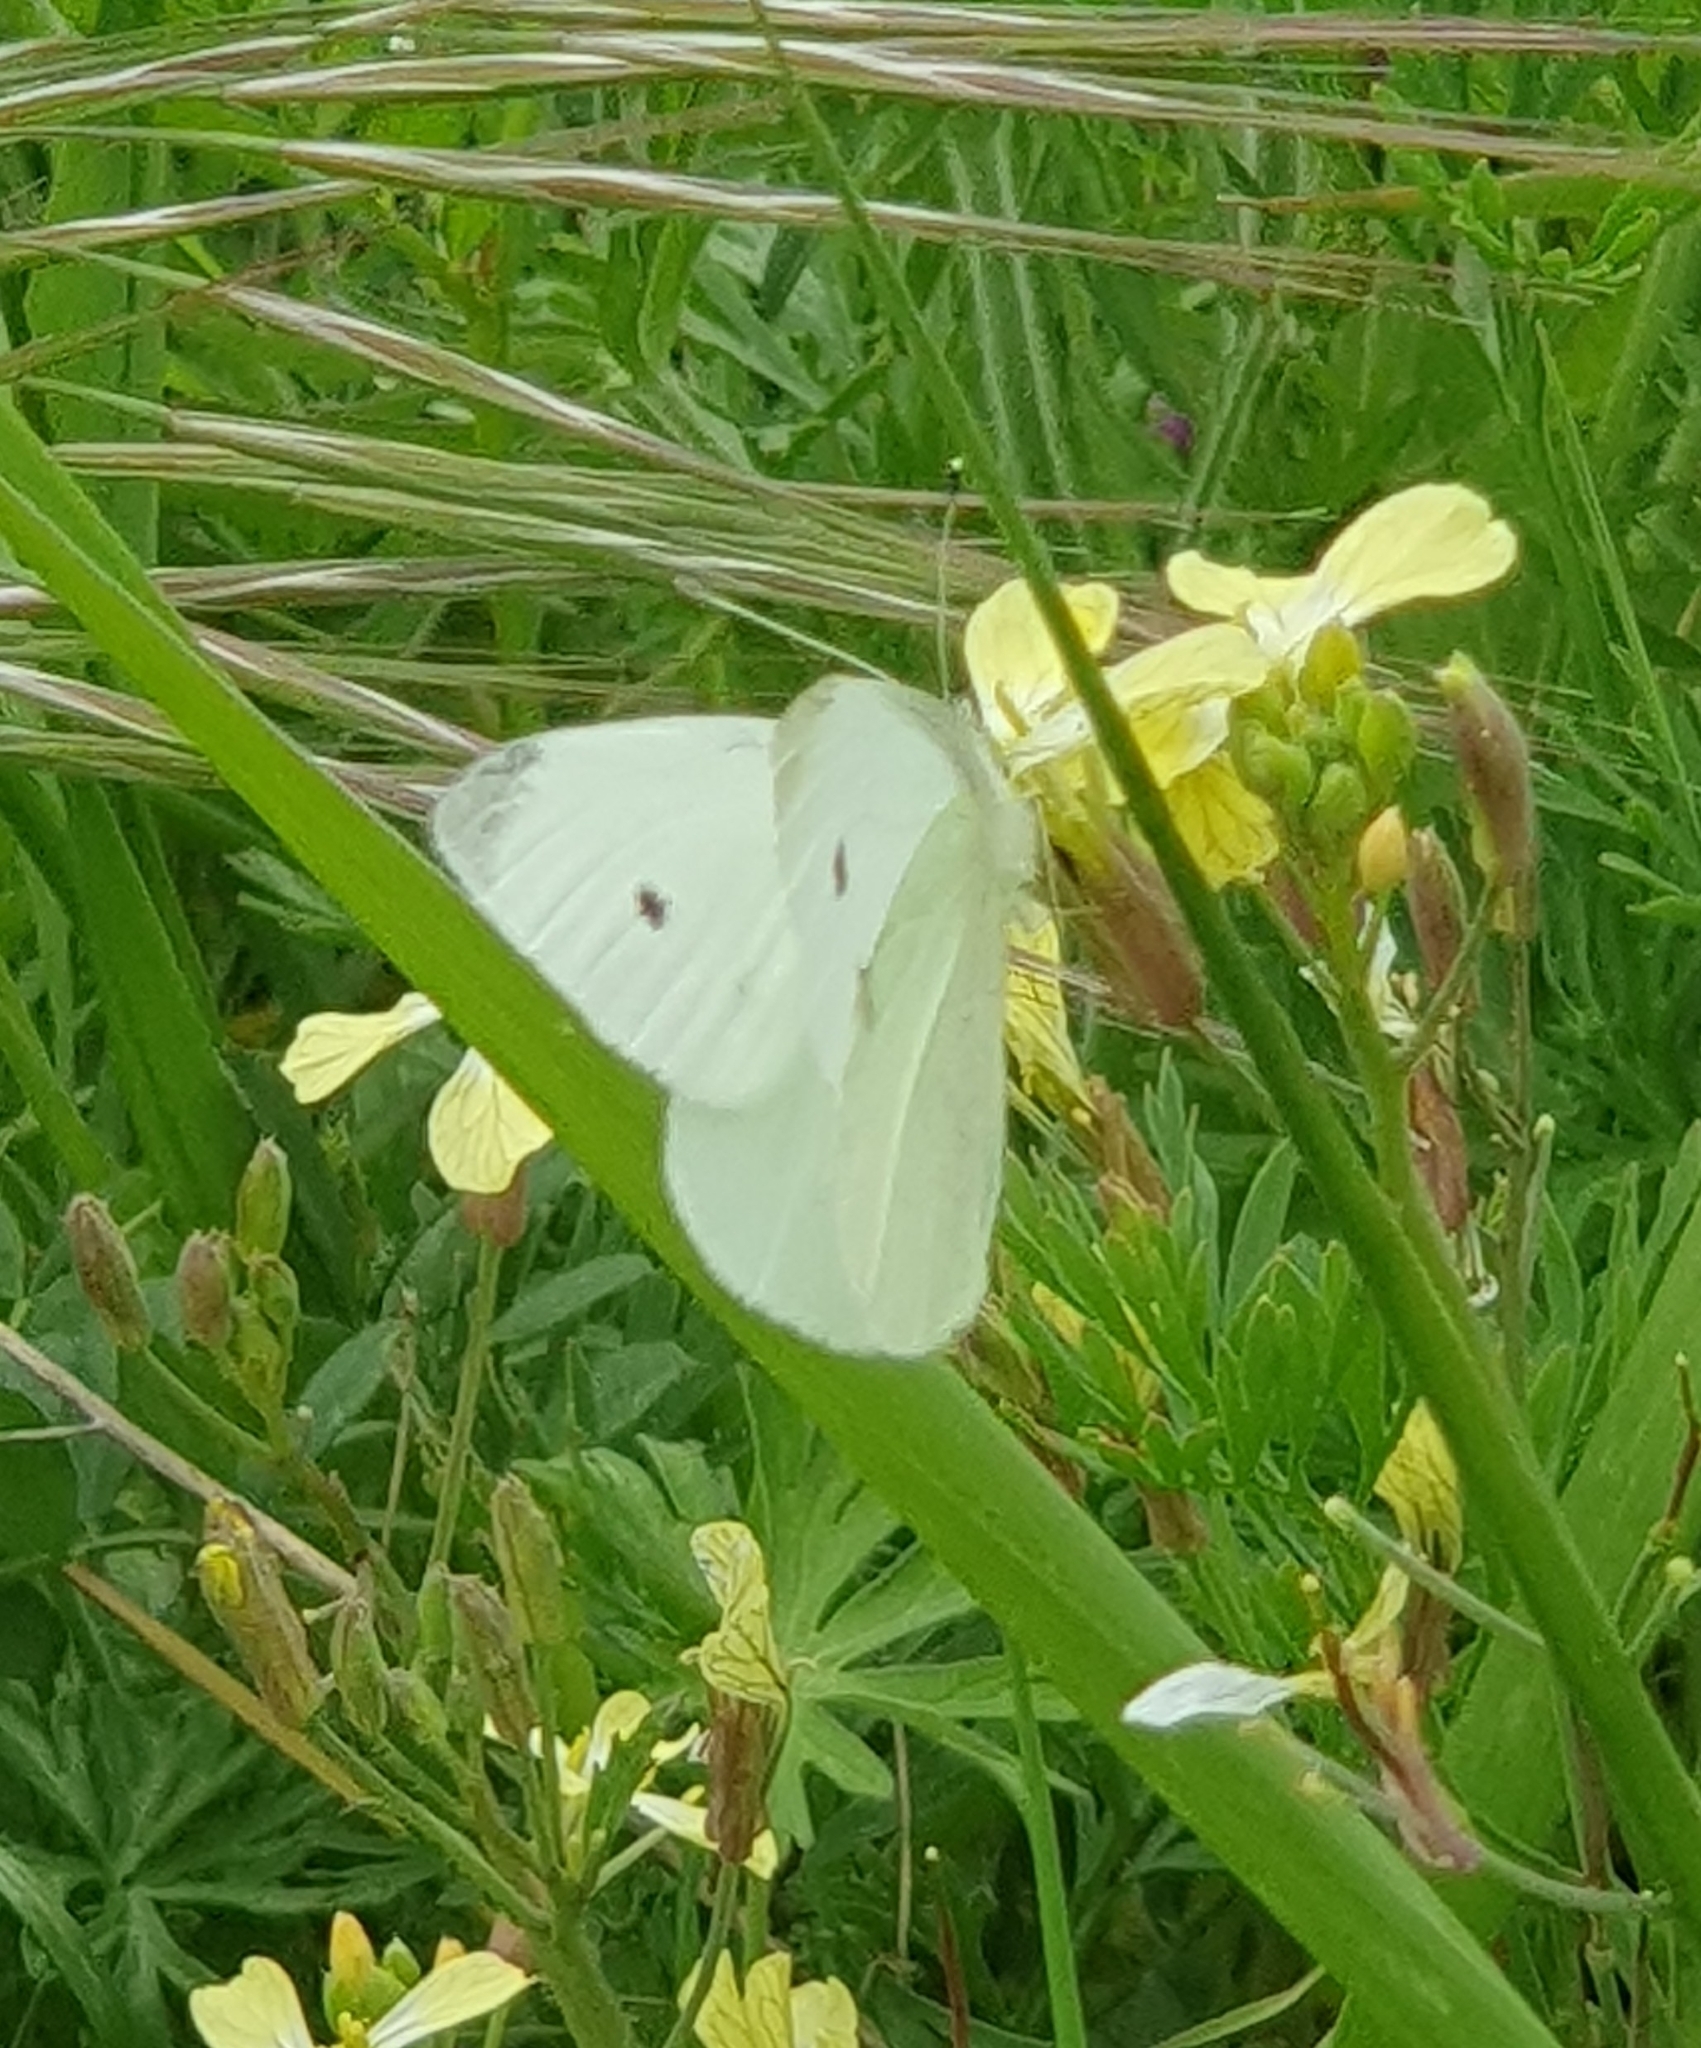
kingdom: Animalia
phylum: Arthropoda
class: Insecta
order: Lepidoptera
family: Pieridae
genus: Pieris
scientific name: Pieris rapae
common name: Small white
